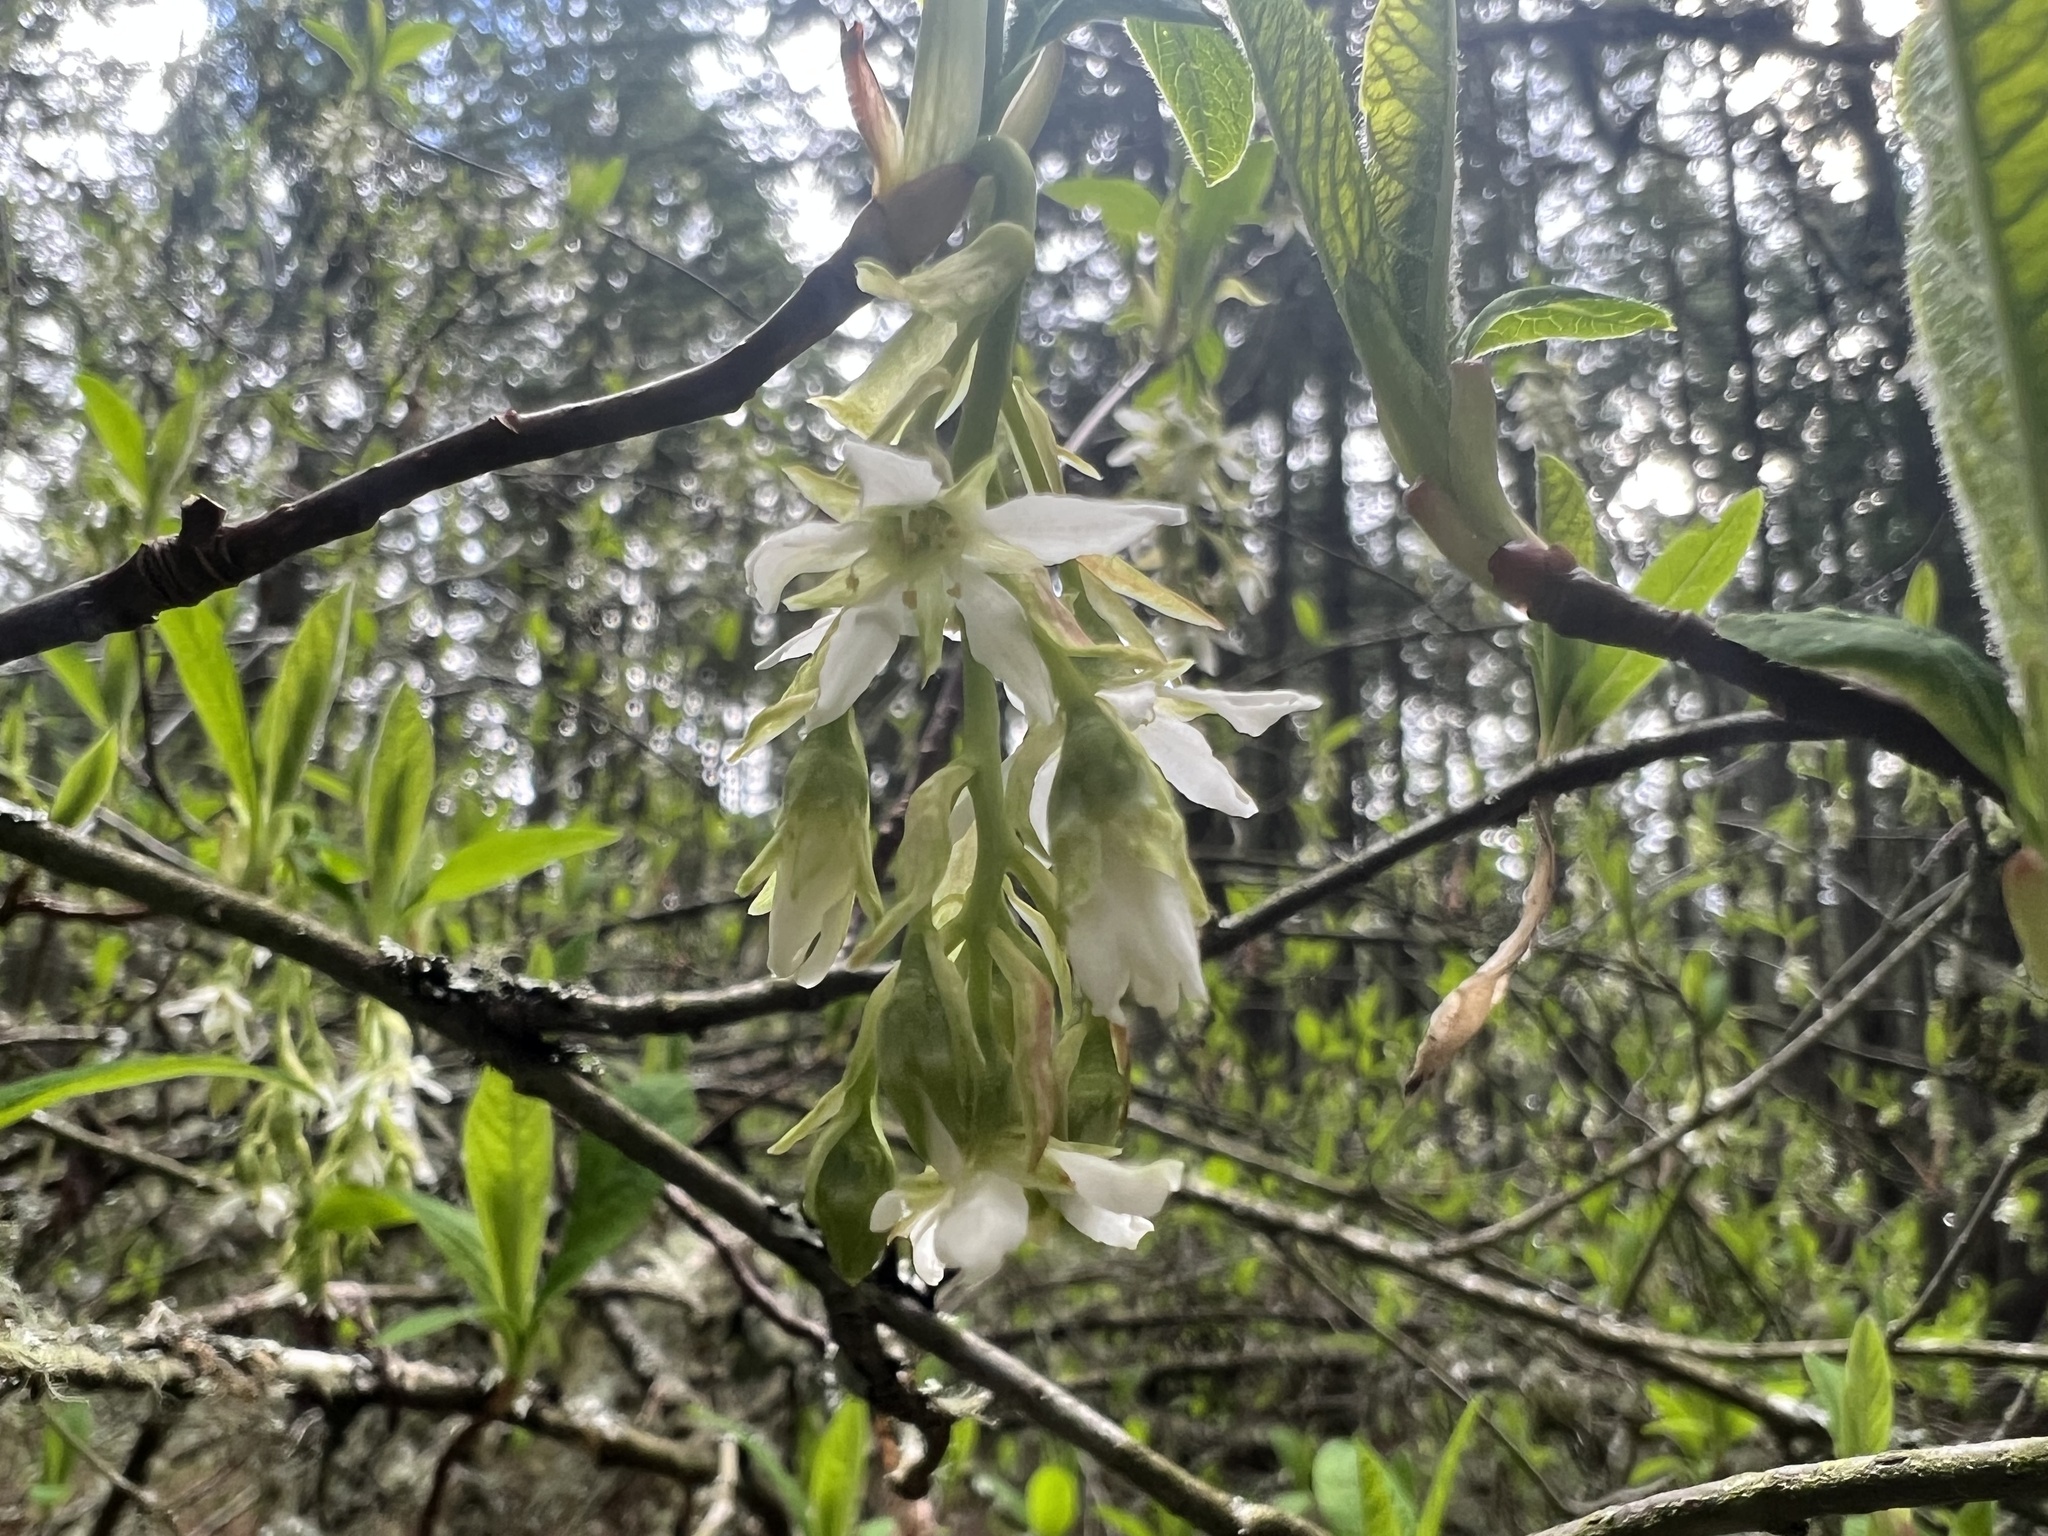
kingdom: Plantae
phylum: Tracheophyta
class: Magnoliopsida
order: Rosales
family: Rosaceae
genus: Oemleria
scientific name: Oemleria cerasiformis
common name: Osoberry
